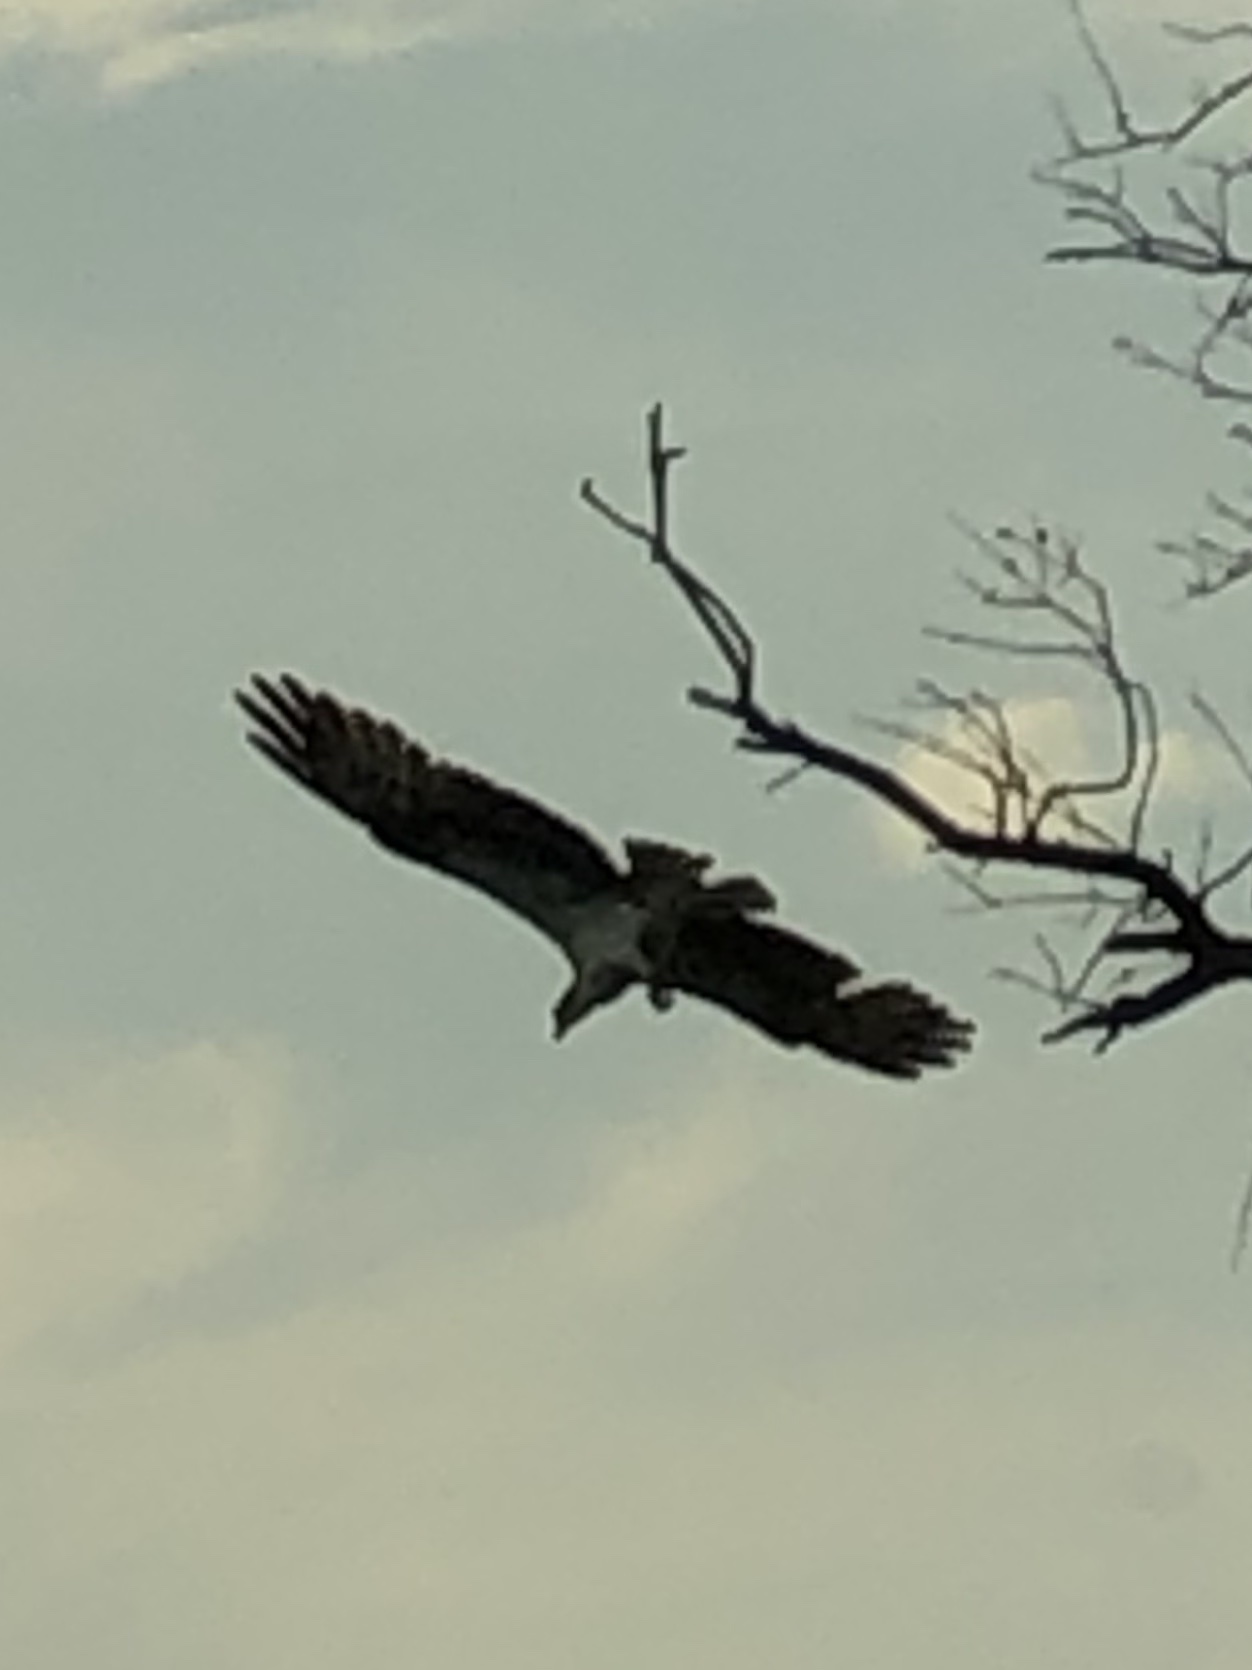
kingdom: Animalia
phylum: Chordata
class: Aves
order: Accipitriformes
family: Pandionidae
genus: Pandion
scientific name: Pandion haliaetus
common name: Osprey
